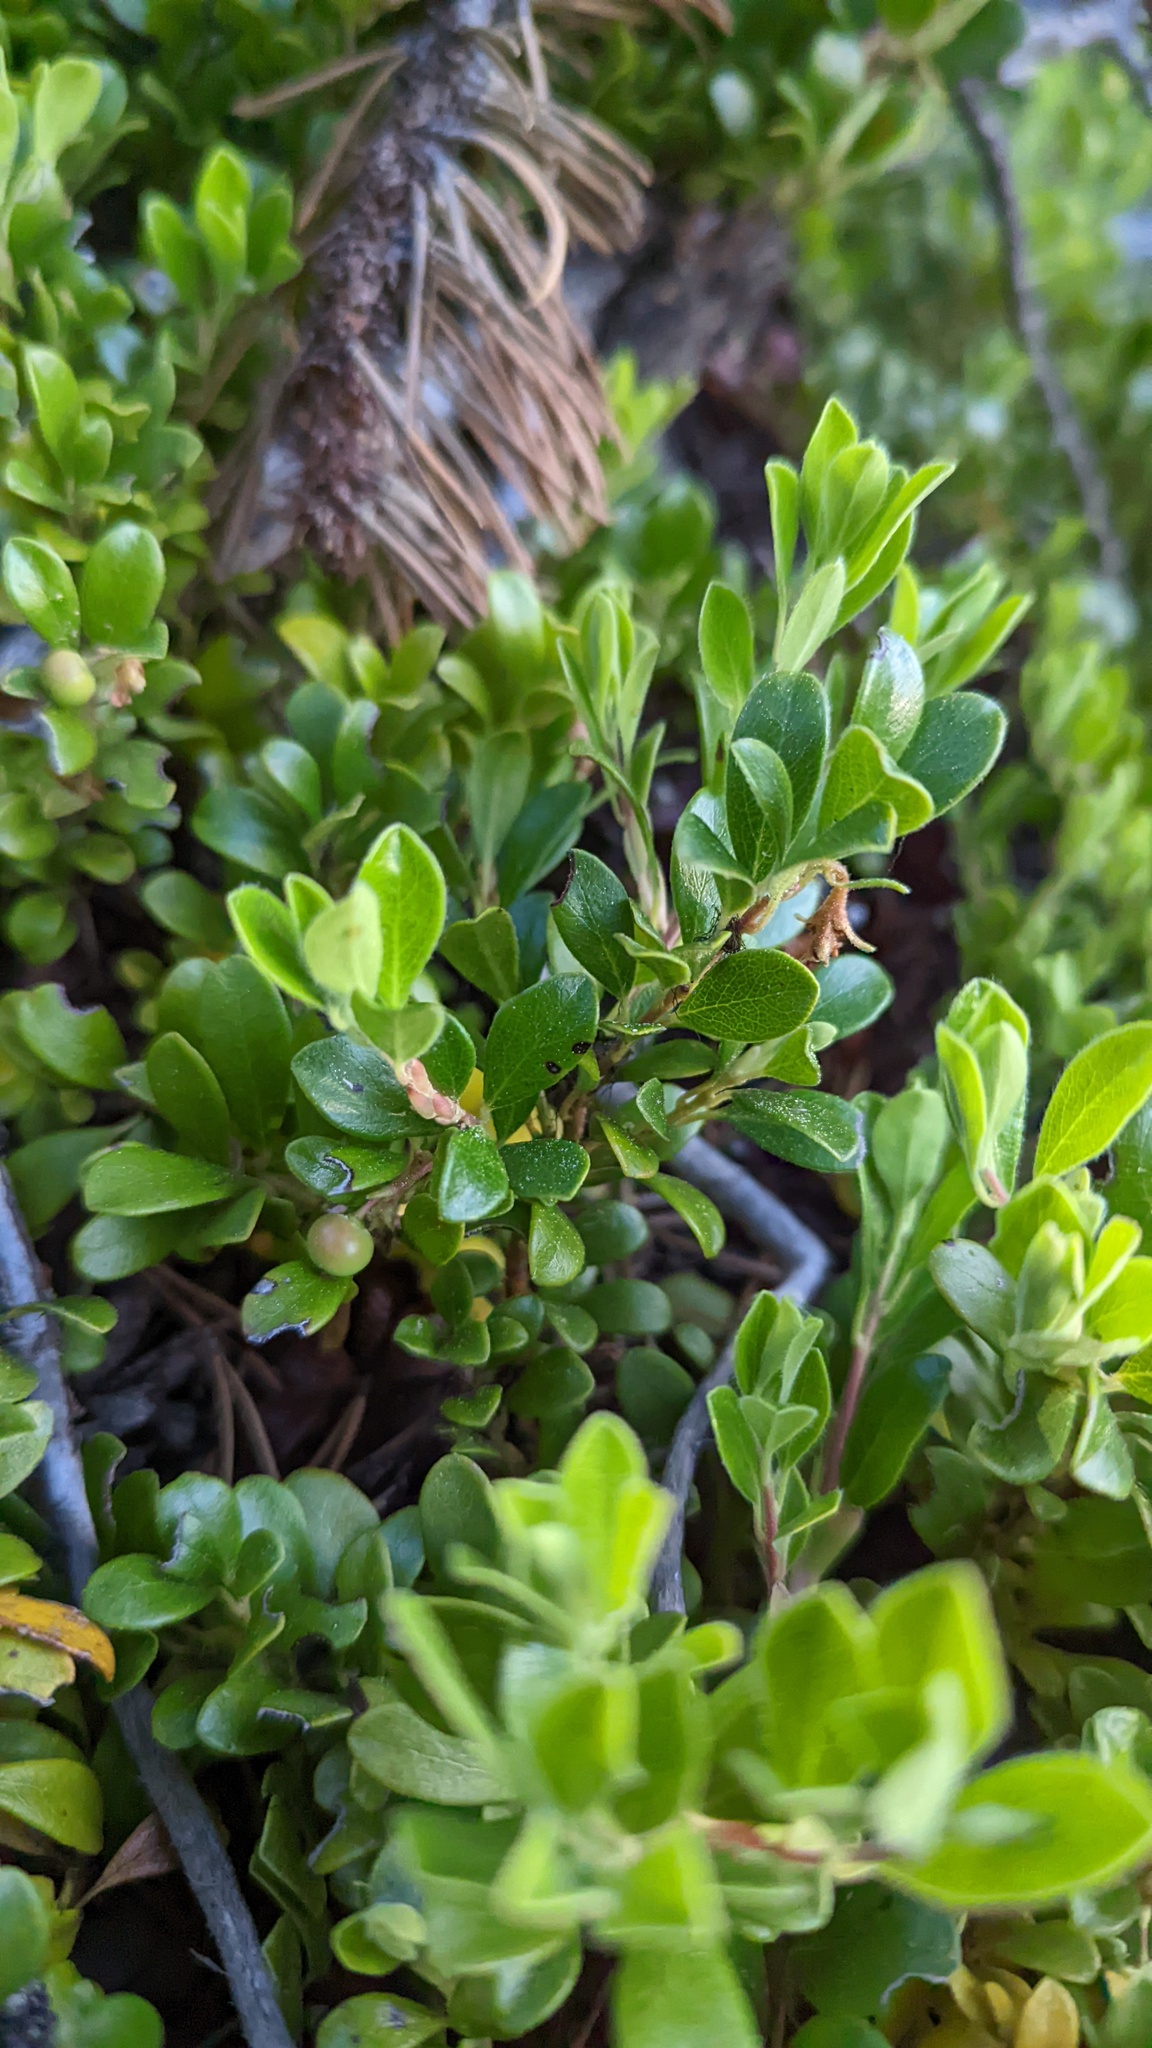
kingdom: Plantae
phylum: Tracheophyta
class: Magnoliopsida
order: Ericales
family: Ericaceae
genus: Arctostaphylos
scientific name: Arctostaphylos uva-ursi
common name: Bearberry
